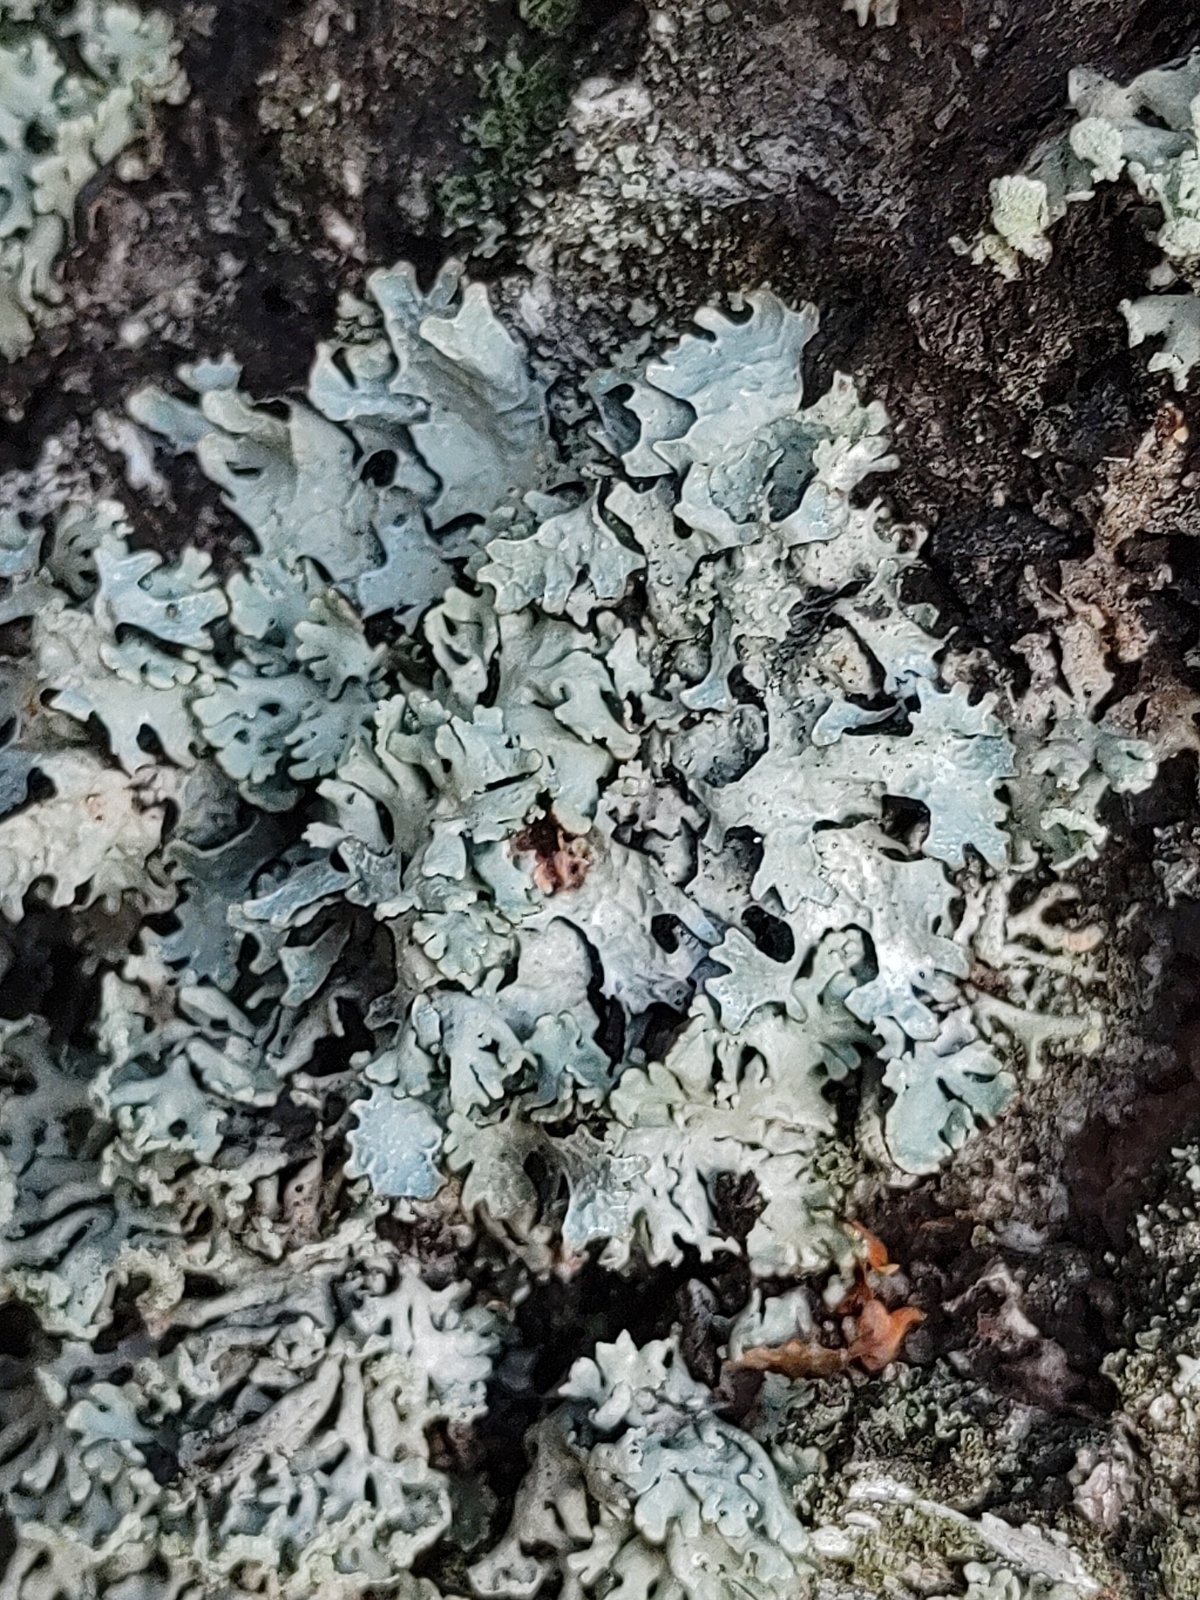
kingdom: Fungi
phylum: Ascomycota
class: Lecanoromycetes
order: Lecanorales
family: Parmeliaceae
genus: Parmelia
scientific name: Parmelia sulcata
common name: Netted shield lichen
